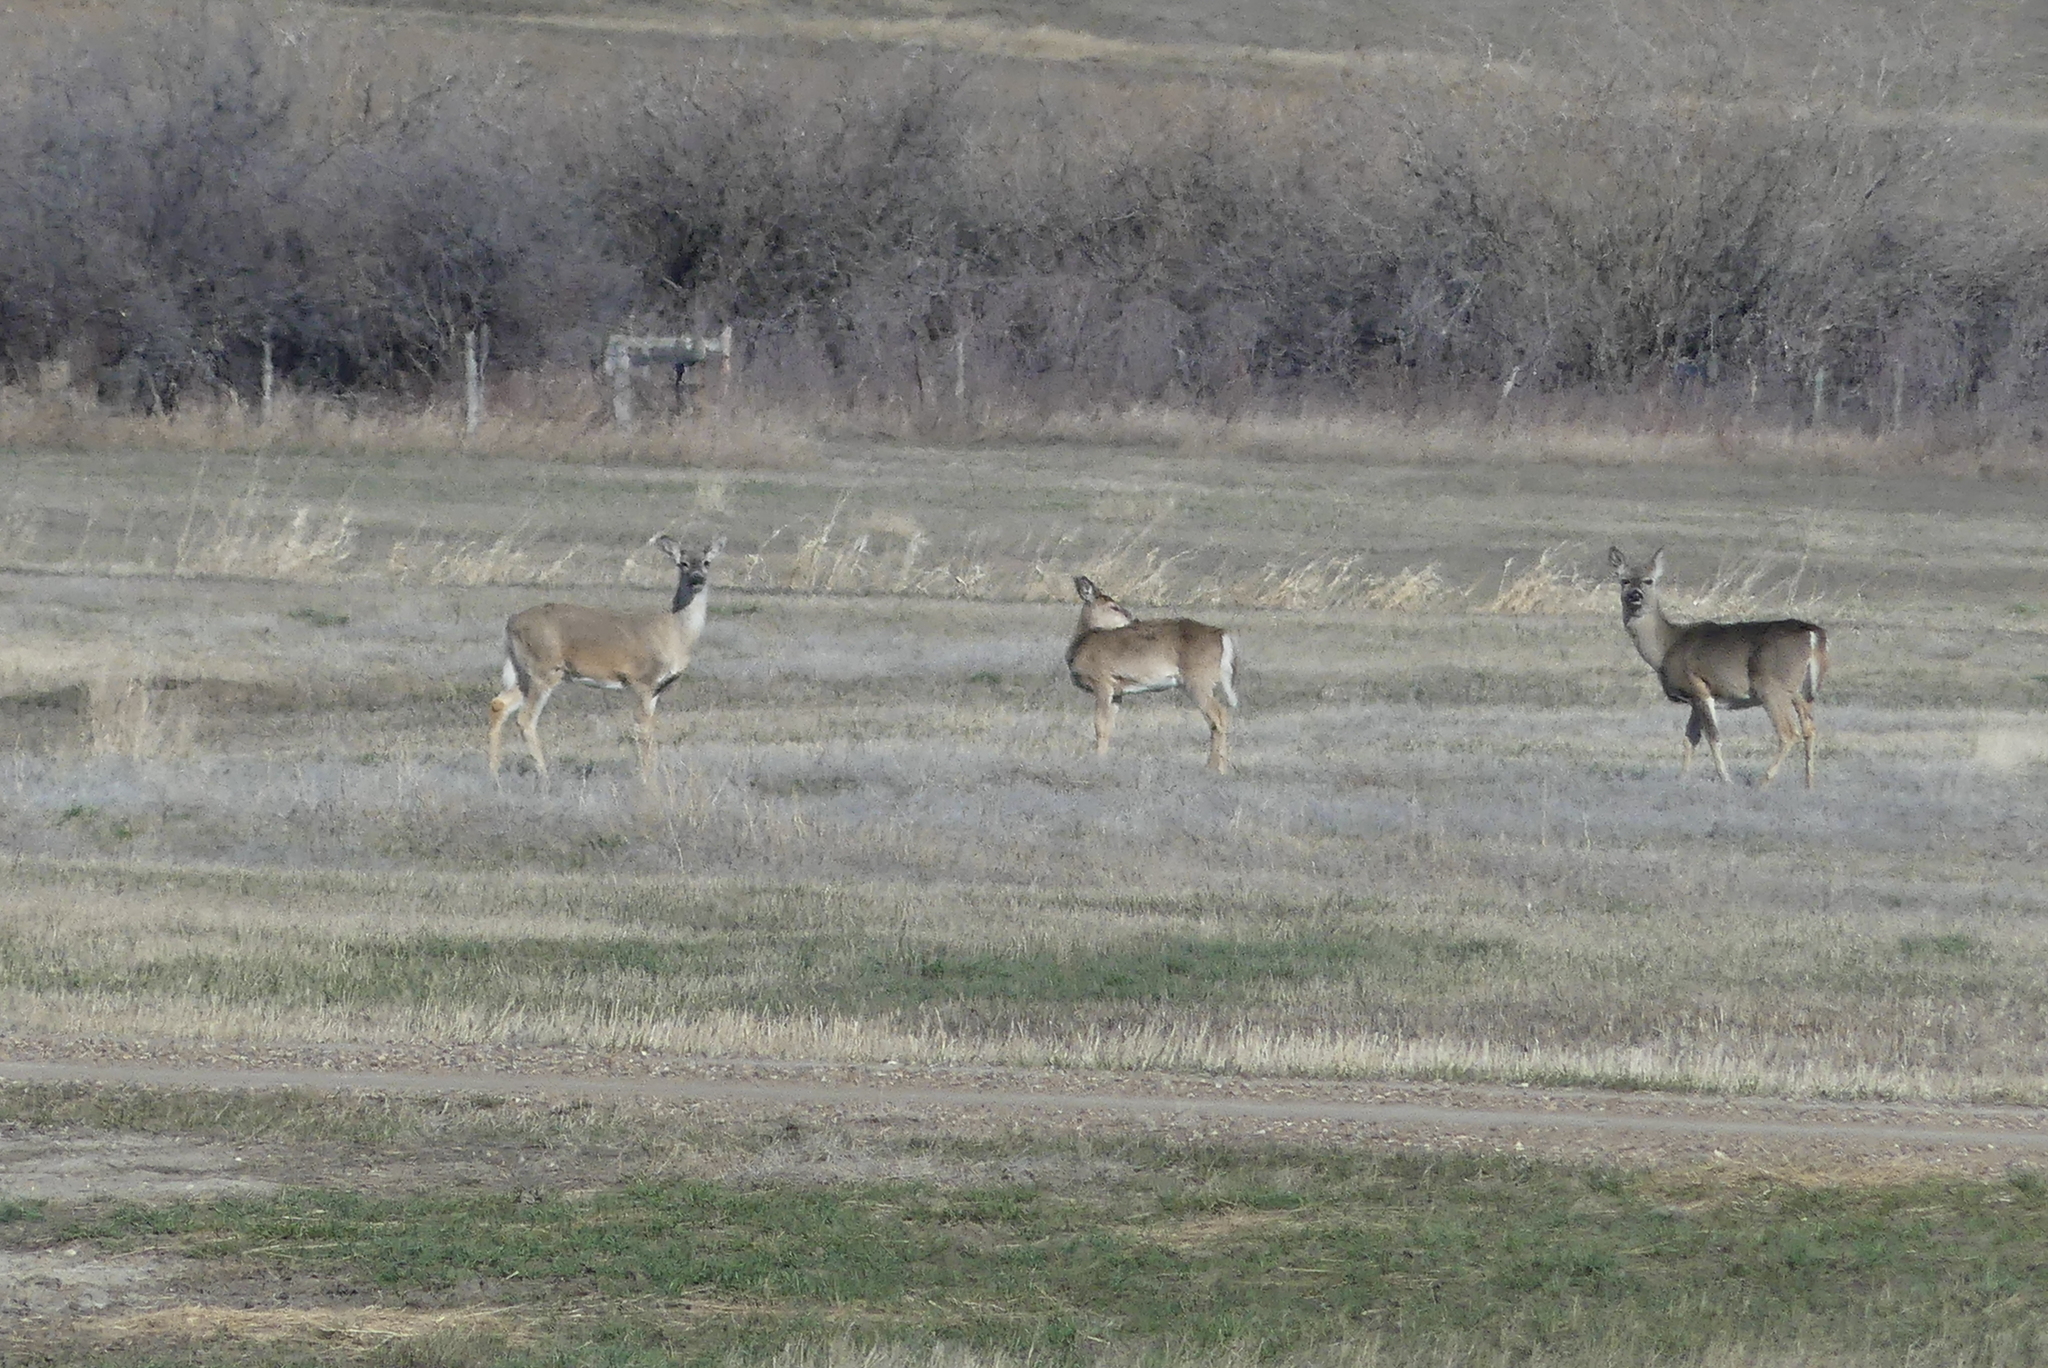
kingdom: Animalia
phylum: Chordata
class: Mammalia
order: Artiodactyla
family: Cervidae
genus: Odocoileus
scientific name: Odocoileus virginianus
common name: White-tailed deer
